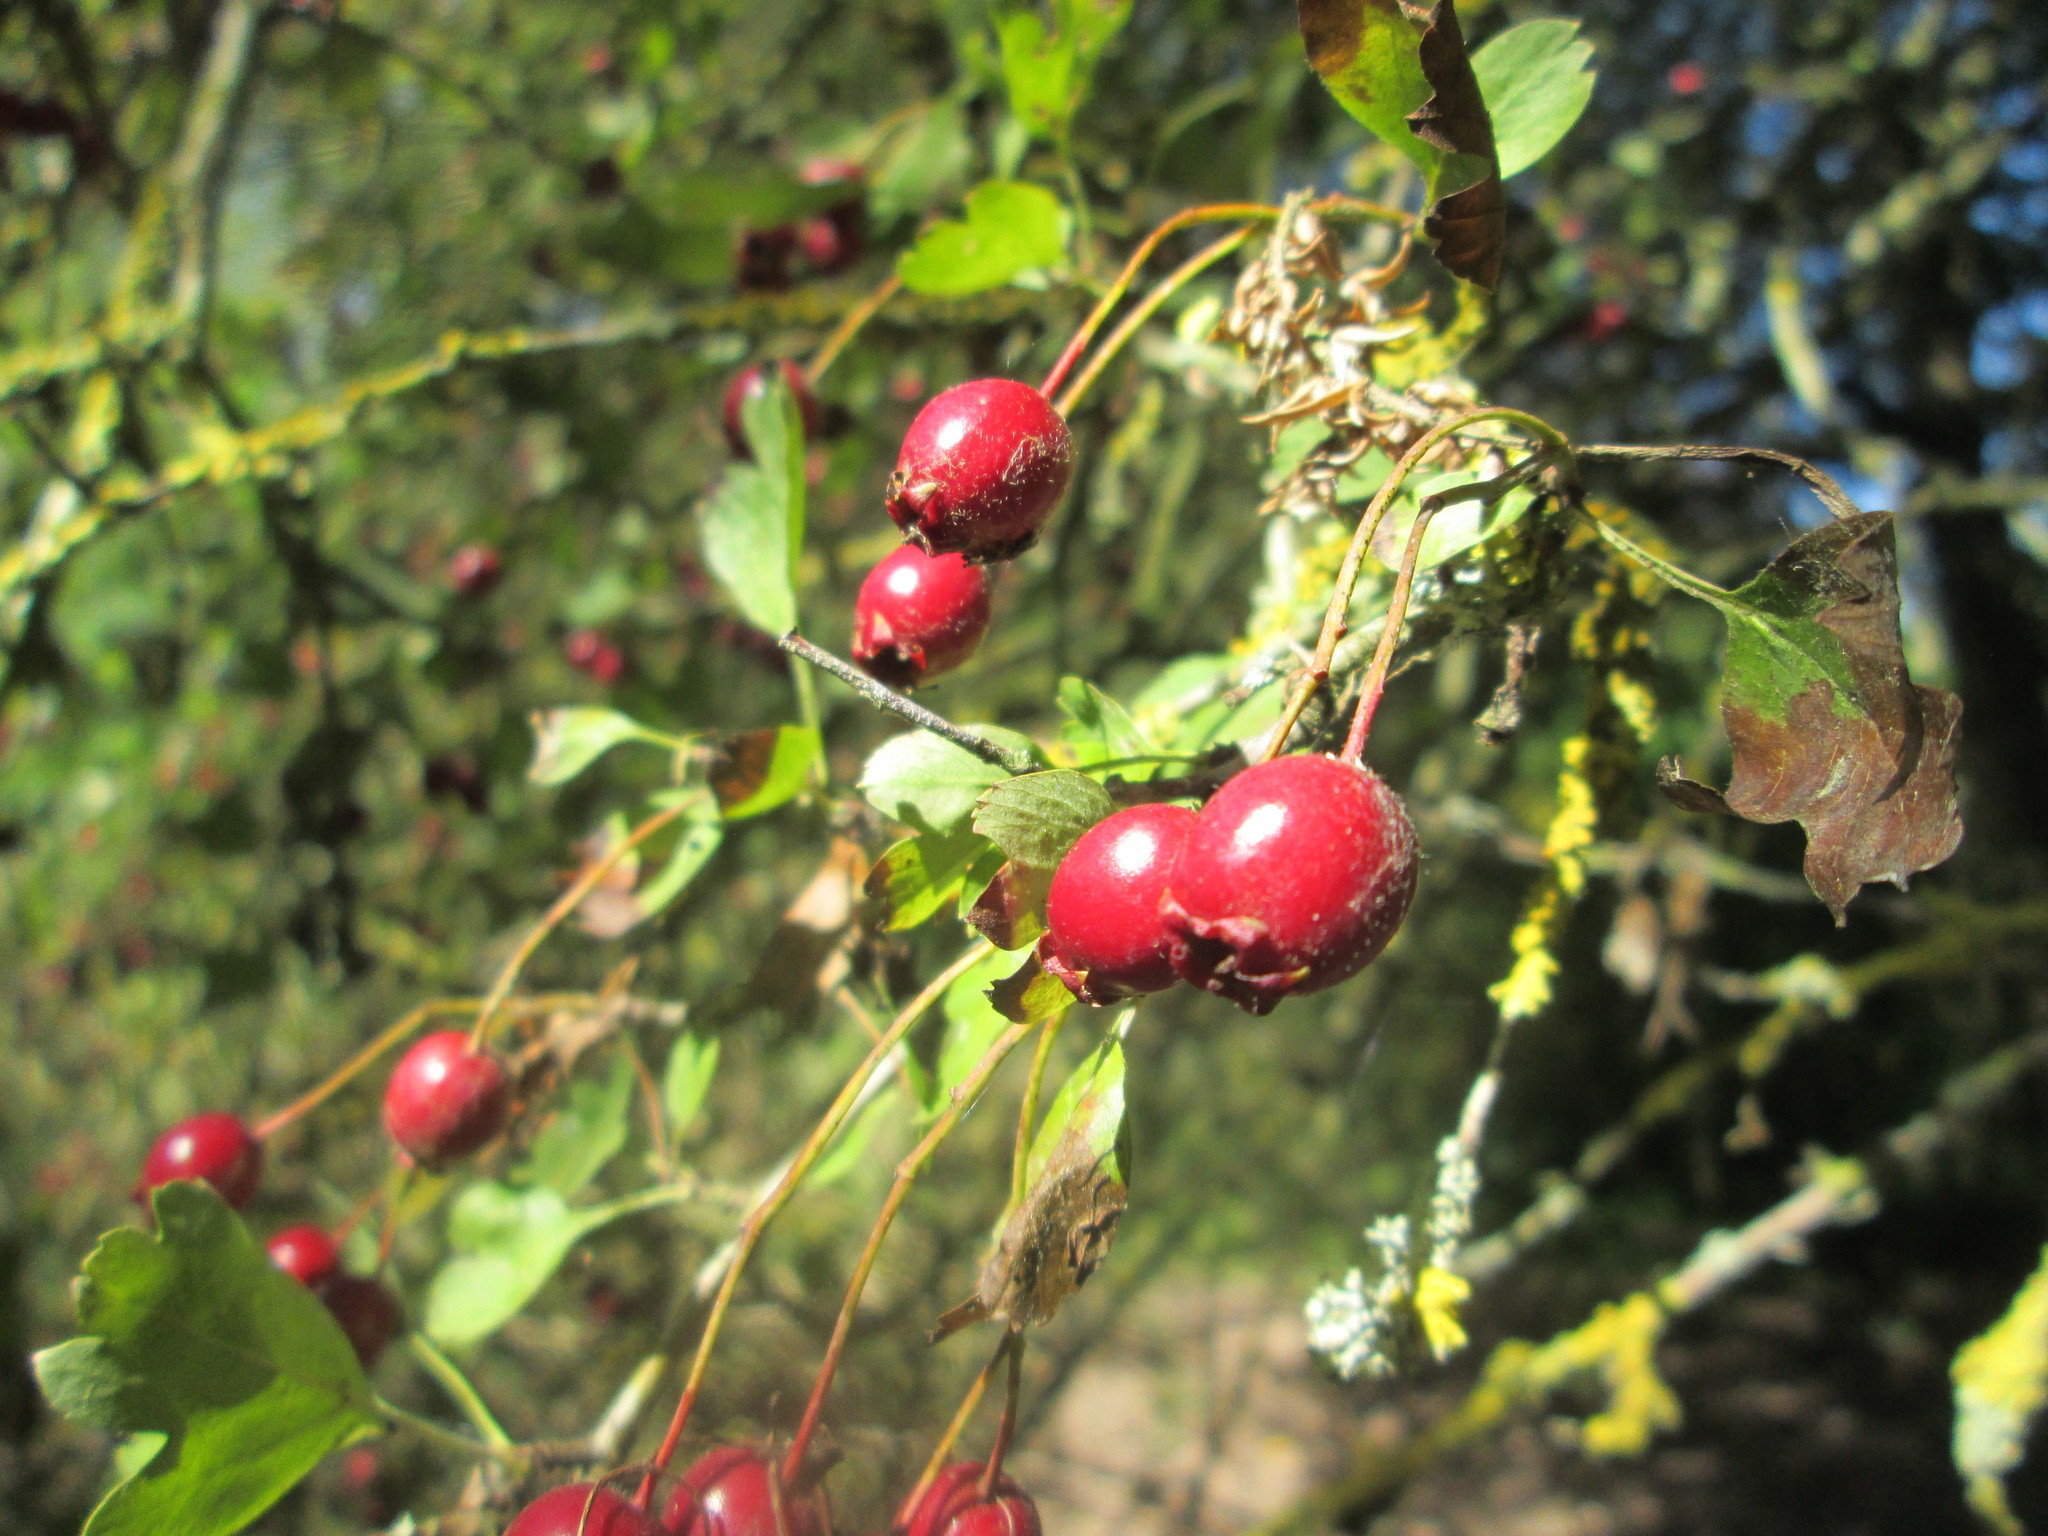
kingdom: Plantae
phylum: Tracheophyta
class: Magnoliopsida
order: Rosales
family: Rosaceae
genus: Crataegus
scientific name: Crataegus monogyna
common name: Hawthorn
